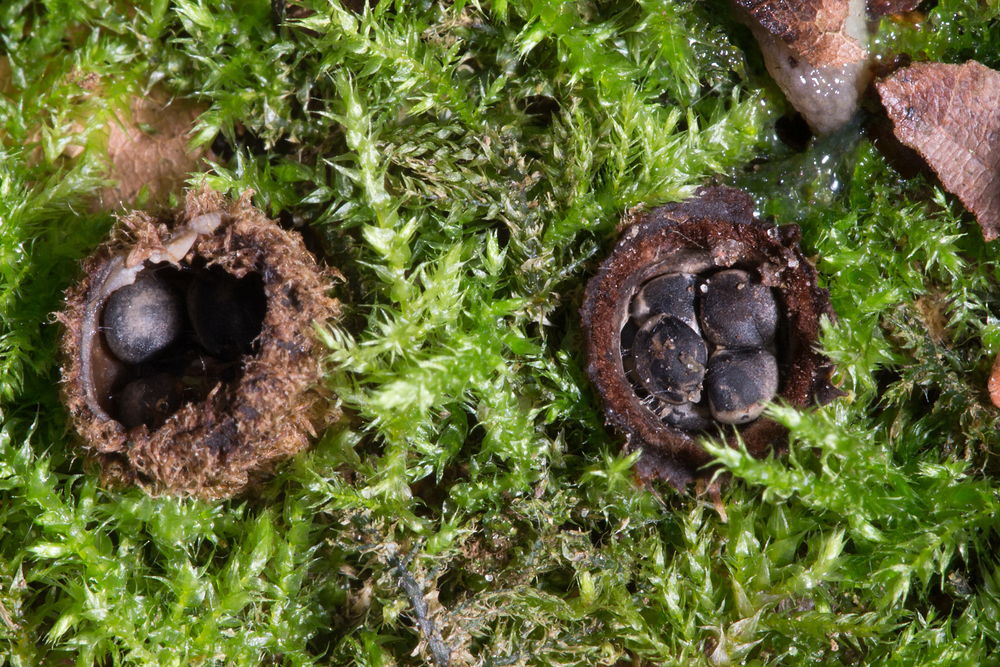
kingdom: Fungi
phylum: Basidiomycota
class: Agaricomycetes
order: Agaricales
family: Agaricaceae
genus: Cyathus
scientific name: Cyathus striatus
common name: Fluted bird's nest
